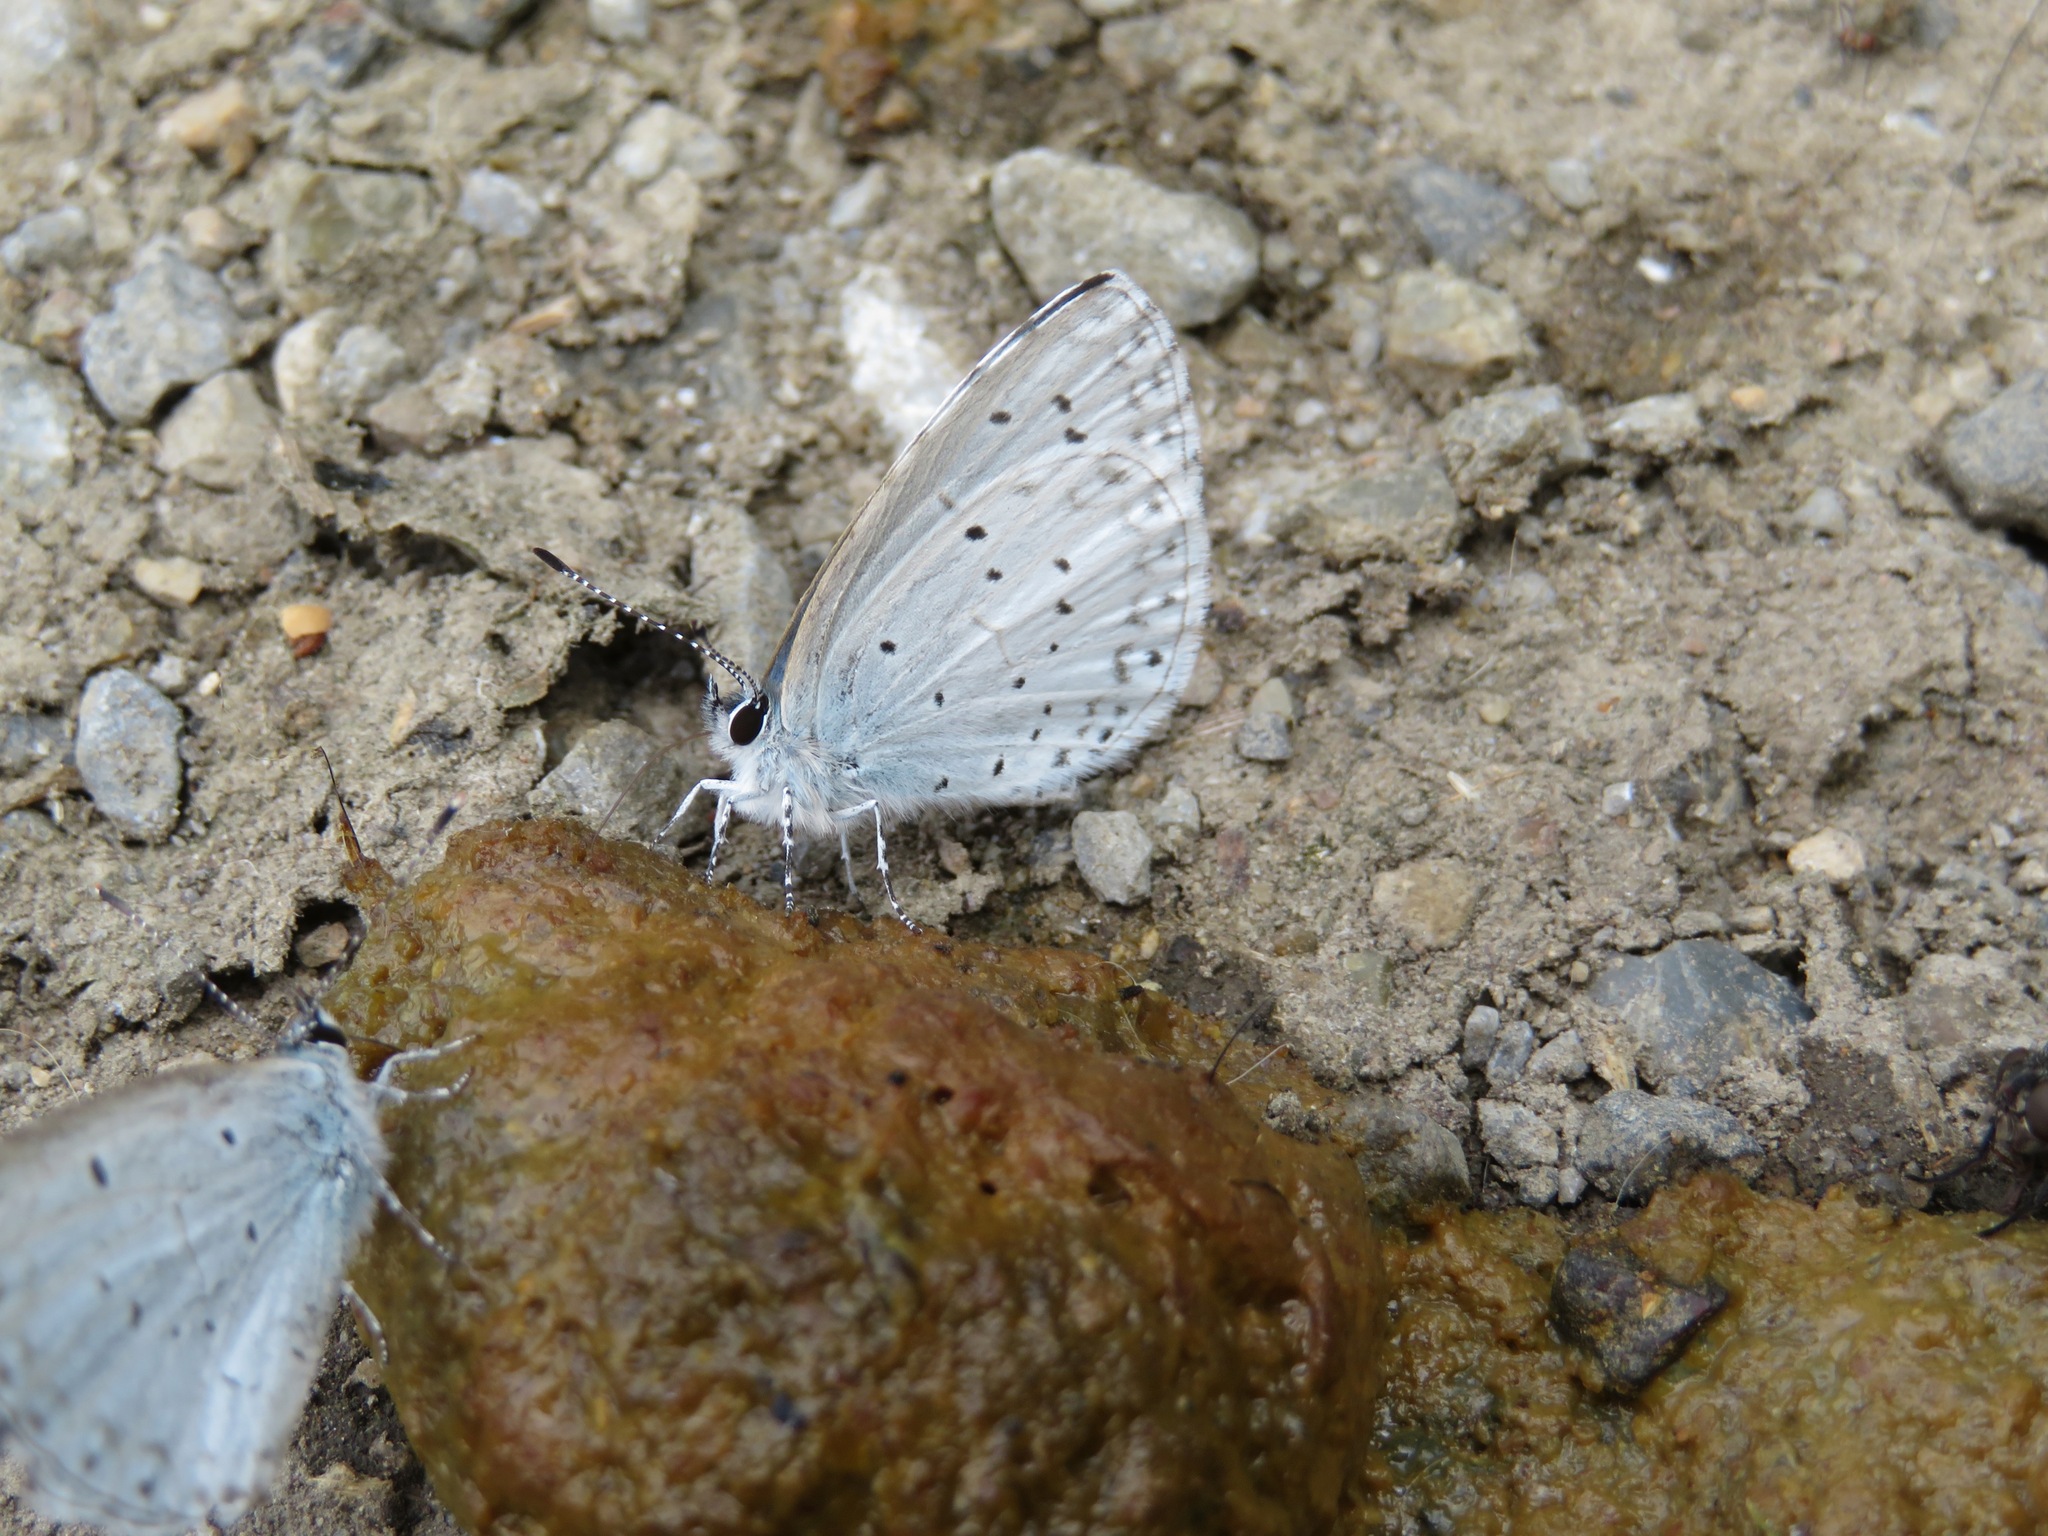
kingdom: Animalia
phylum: Arthropoda
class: Insecta
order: Lepidoptera
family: Lycaenidae
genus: Celastrina
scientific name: Celastrina argiolus
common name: Holly blue
